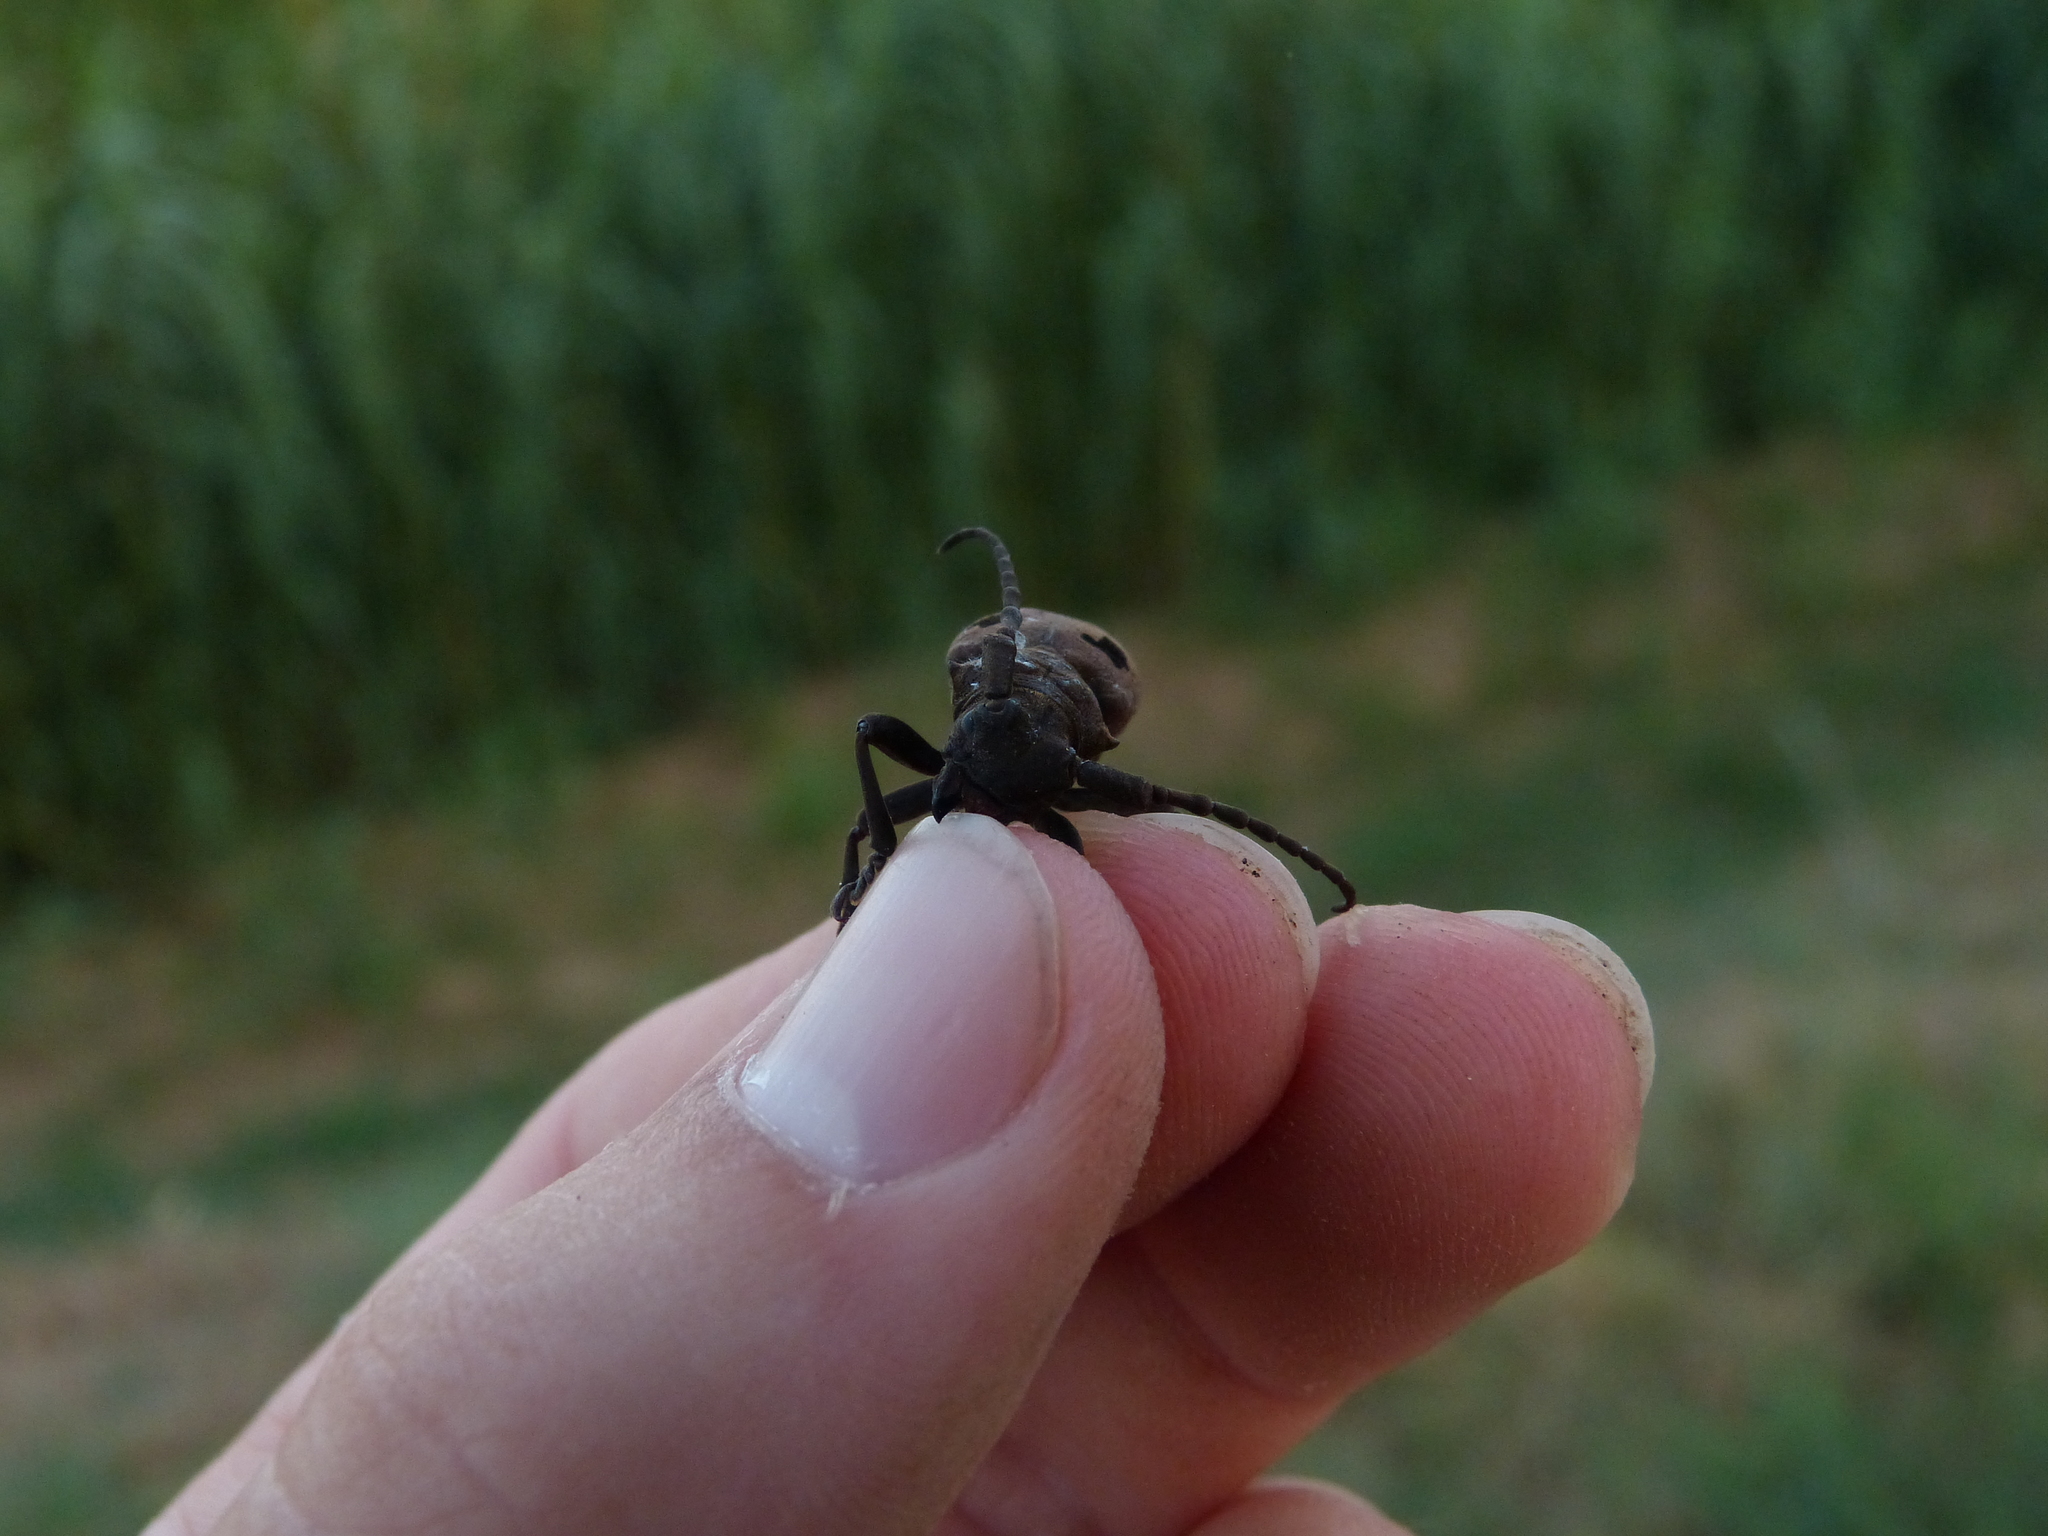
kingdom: Animalia
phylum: Arthropoda
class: Insecta
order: Coleoptera
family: Cerambycidae
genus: Herophila
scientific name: Herophila tristis
